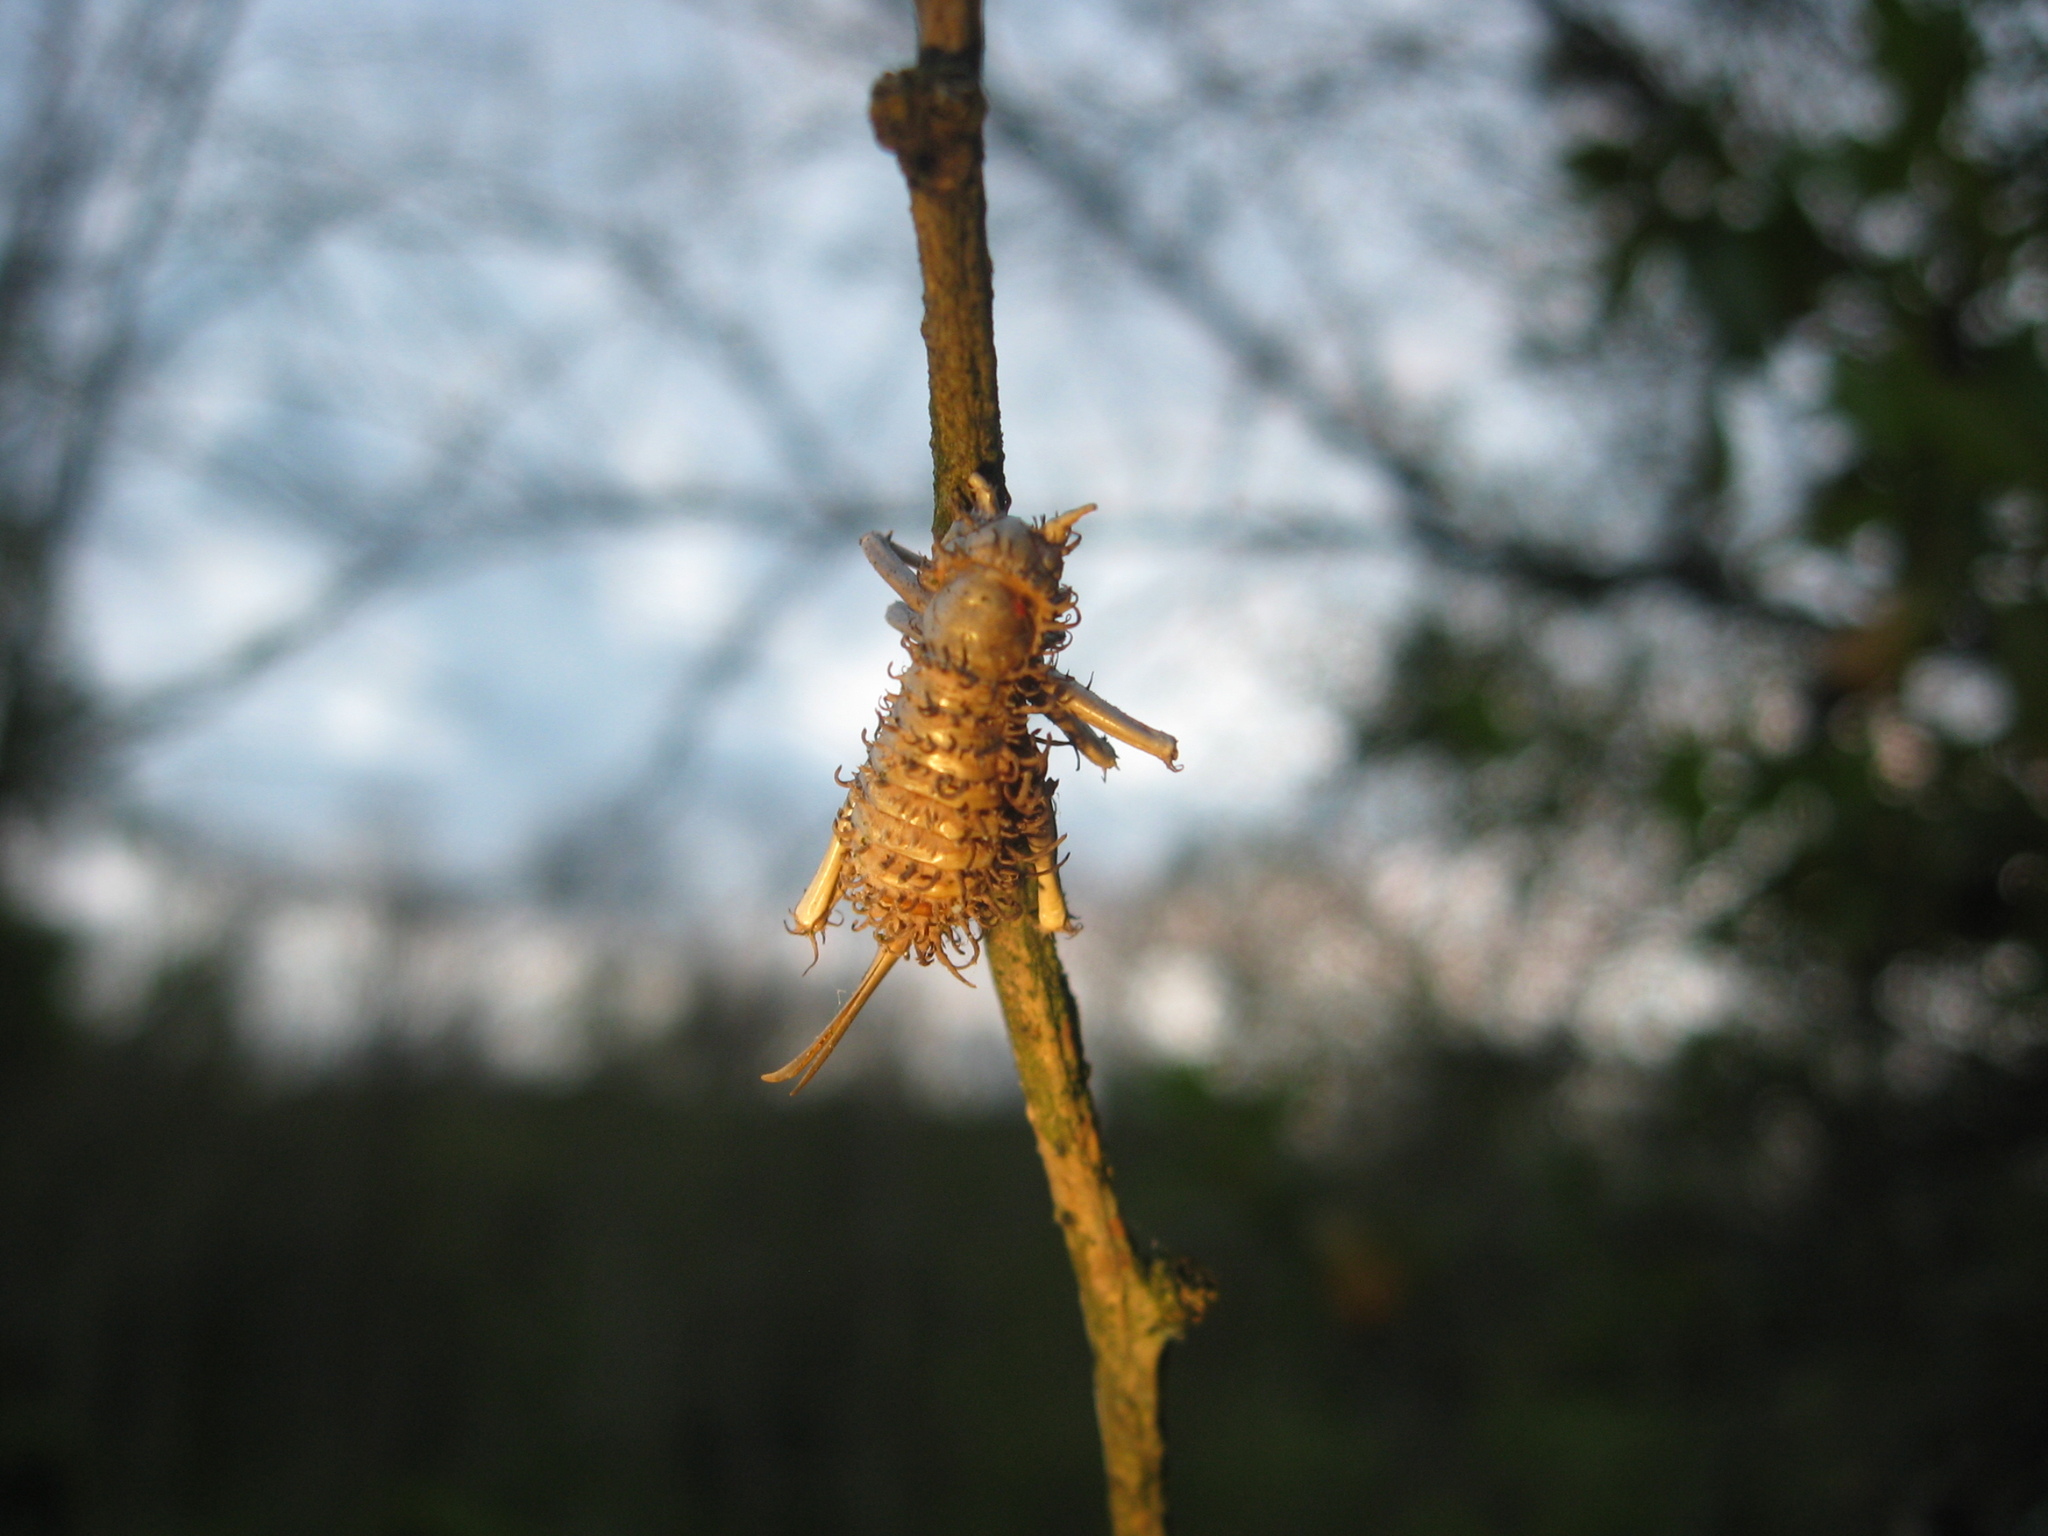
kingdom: Animalia
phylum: Arthropoda
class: Insecta
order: Orthoptera
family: Gryllacrididae
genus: Camptonotus
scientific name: Camptonotus carolinensis
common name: Carolina leaf-roller
